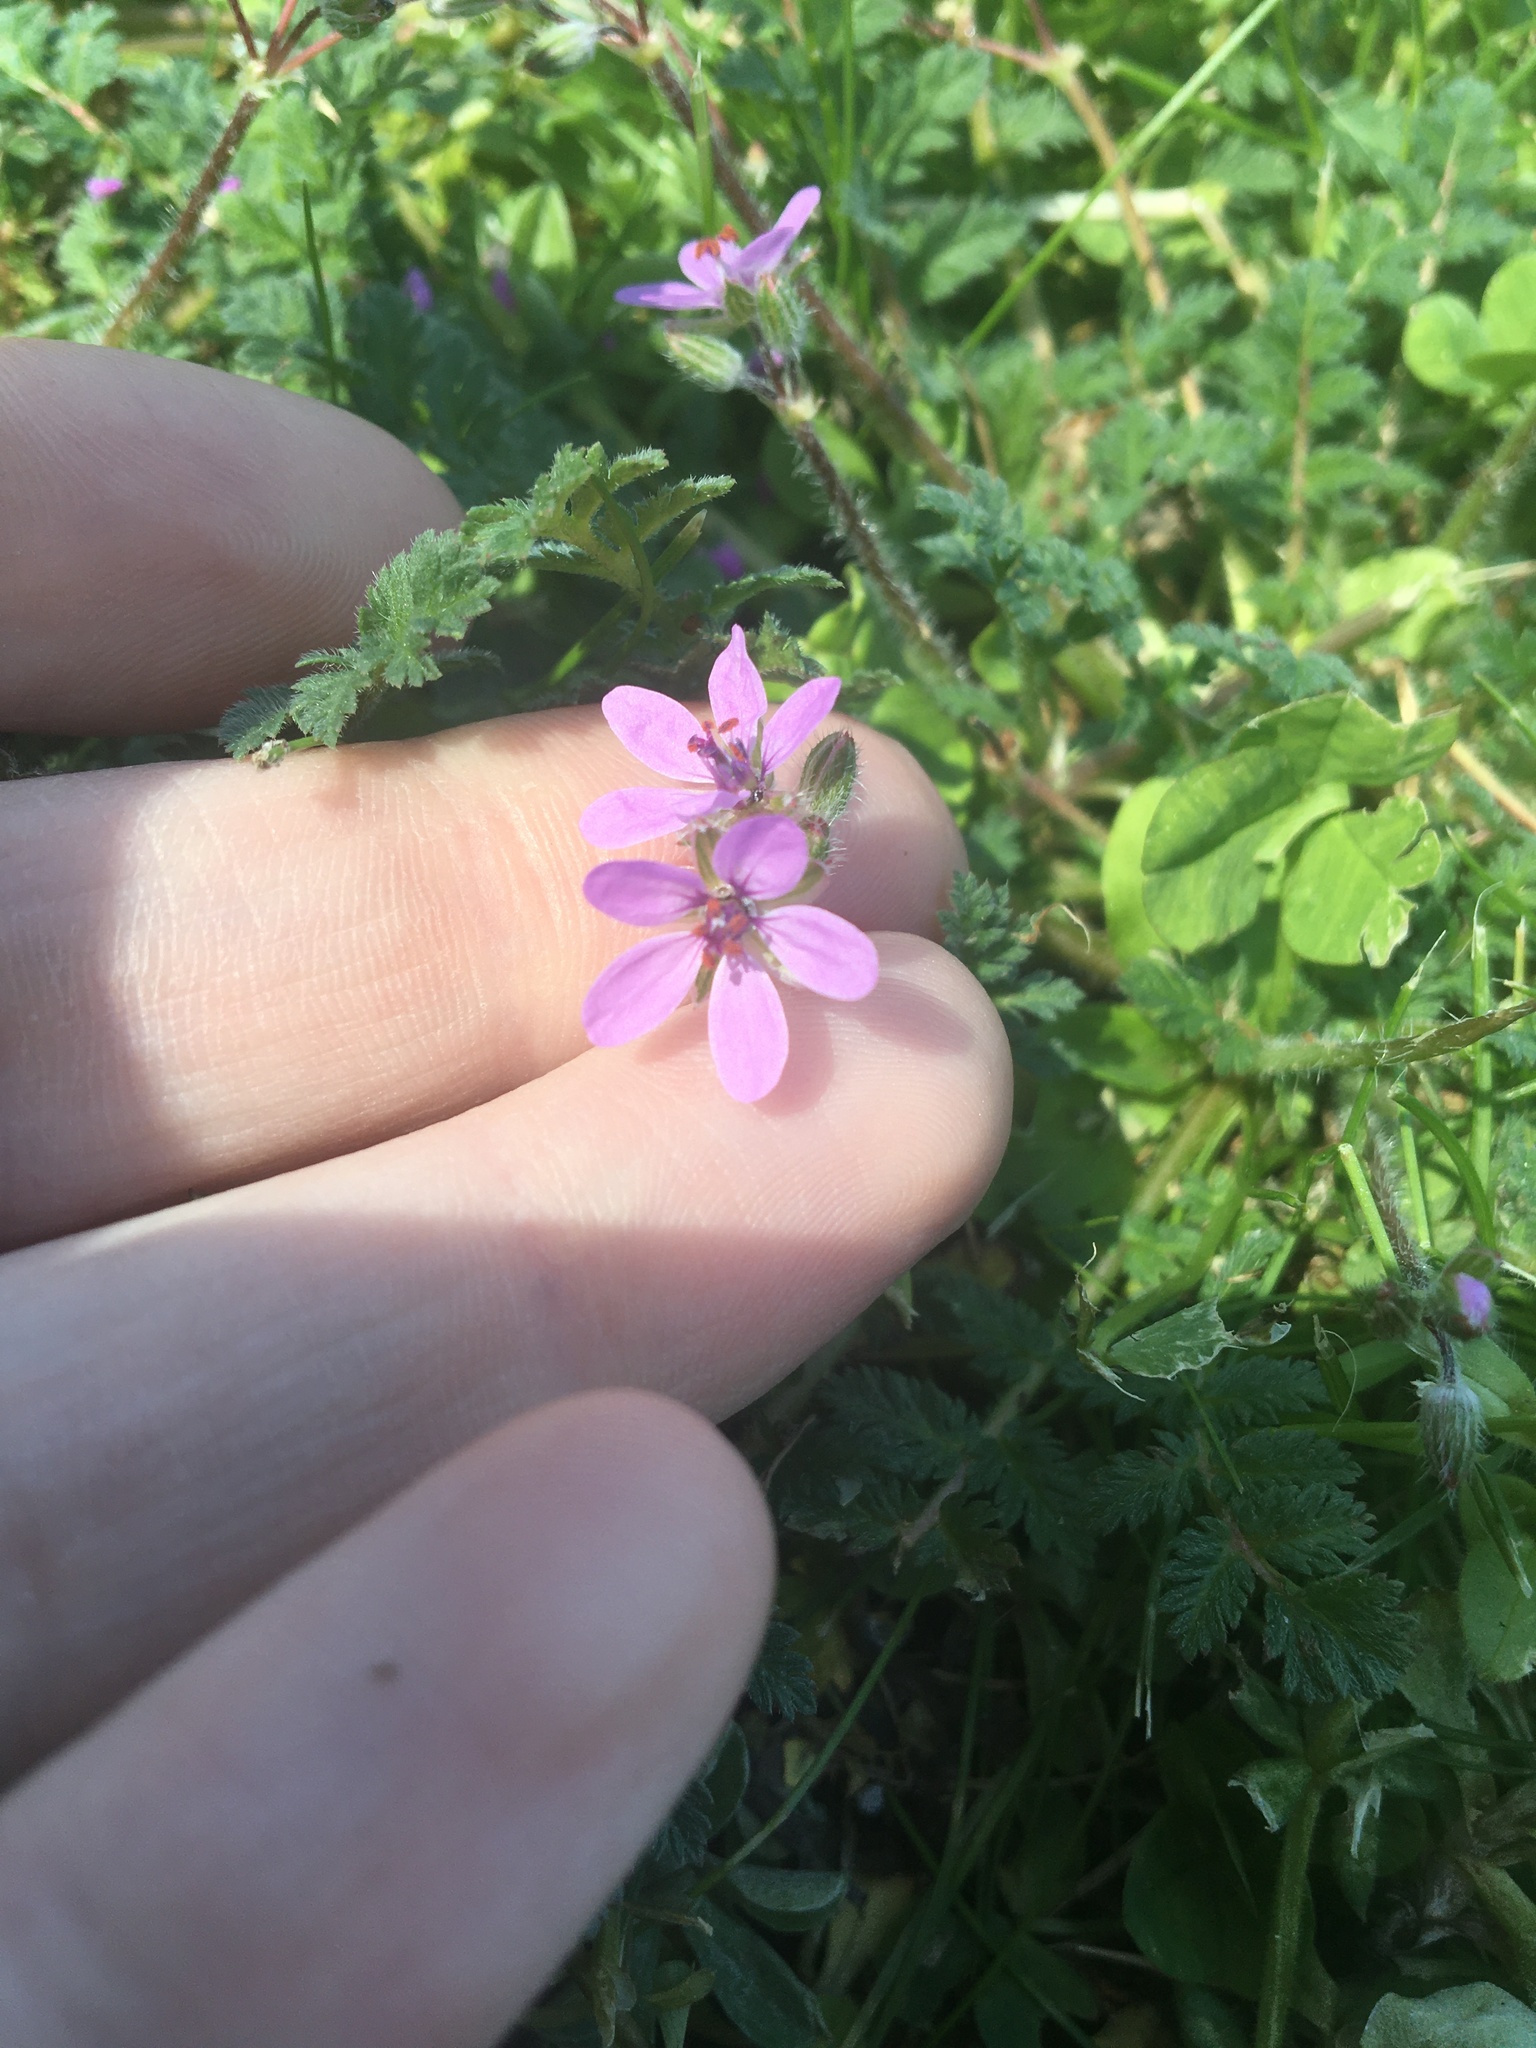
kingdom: Plantae
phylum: Tracheophyta
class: Magnoliopsida
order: Geraniales
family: Geraniaceae
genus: Erodium
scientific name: Erodium cicutarium
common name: Common stork's-bill
